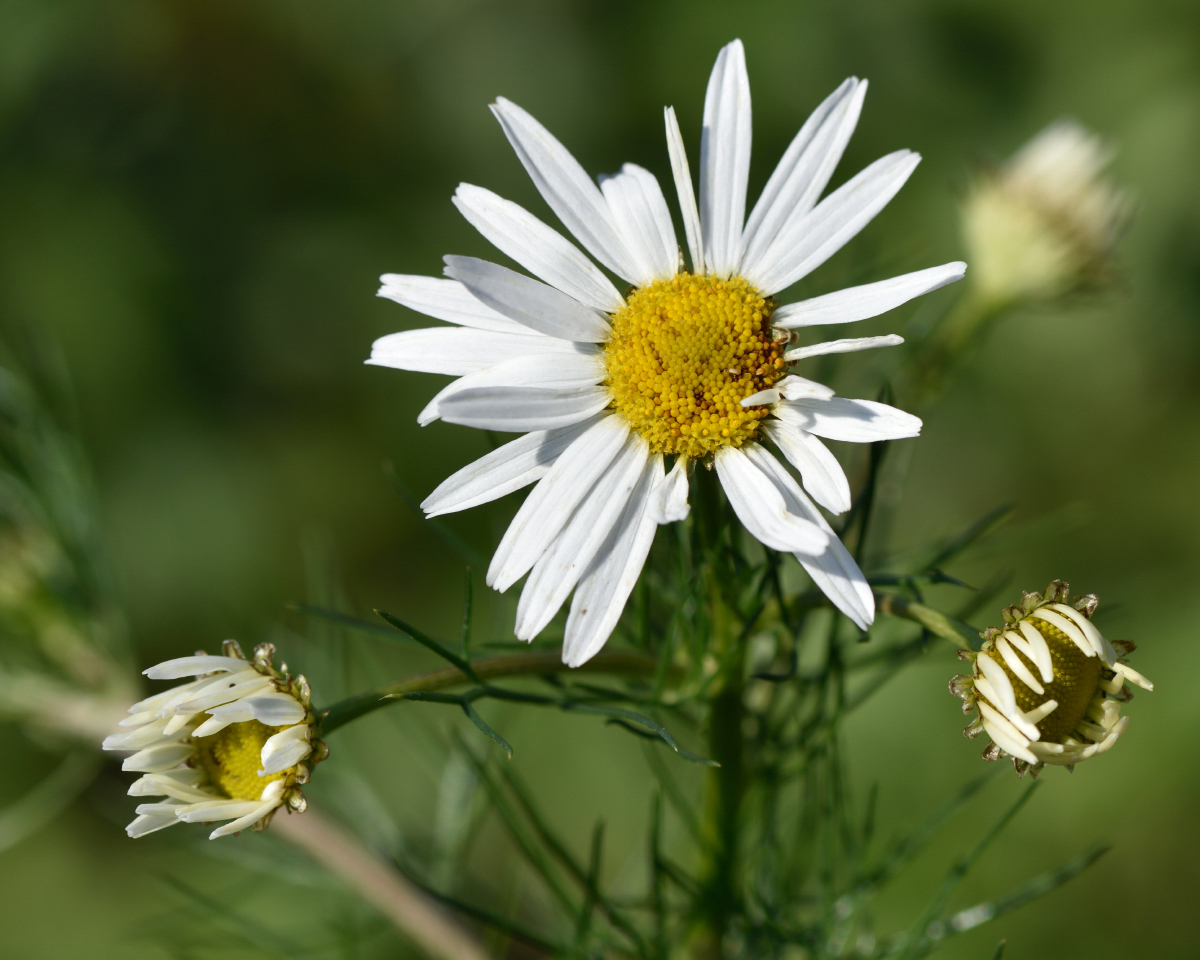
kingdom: Plantae
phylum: Tracheophyta
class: Magnoliopsida
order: Asterales
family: Asteraceae
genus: Tripleurospermum
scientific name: Tripleurospermum inodorum
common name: Scentless mayweed
